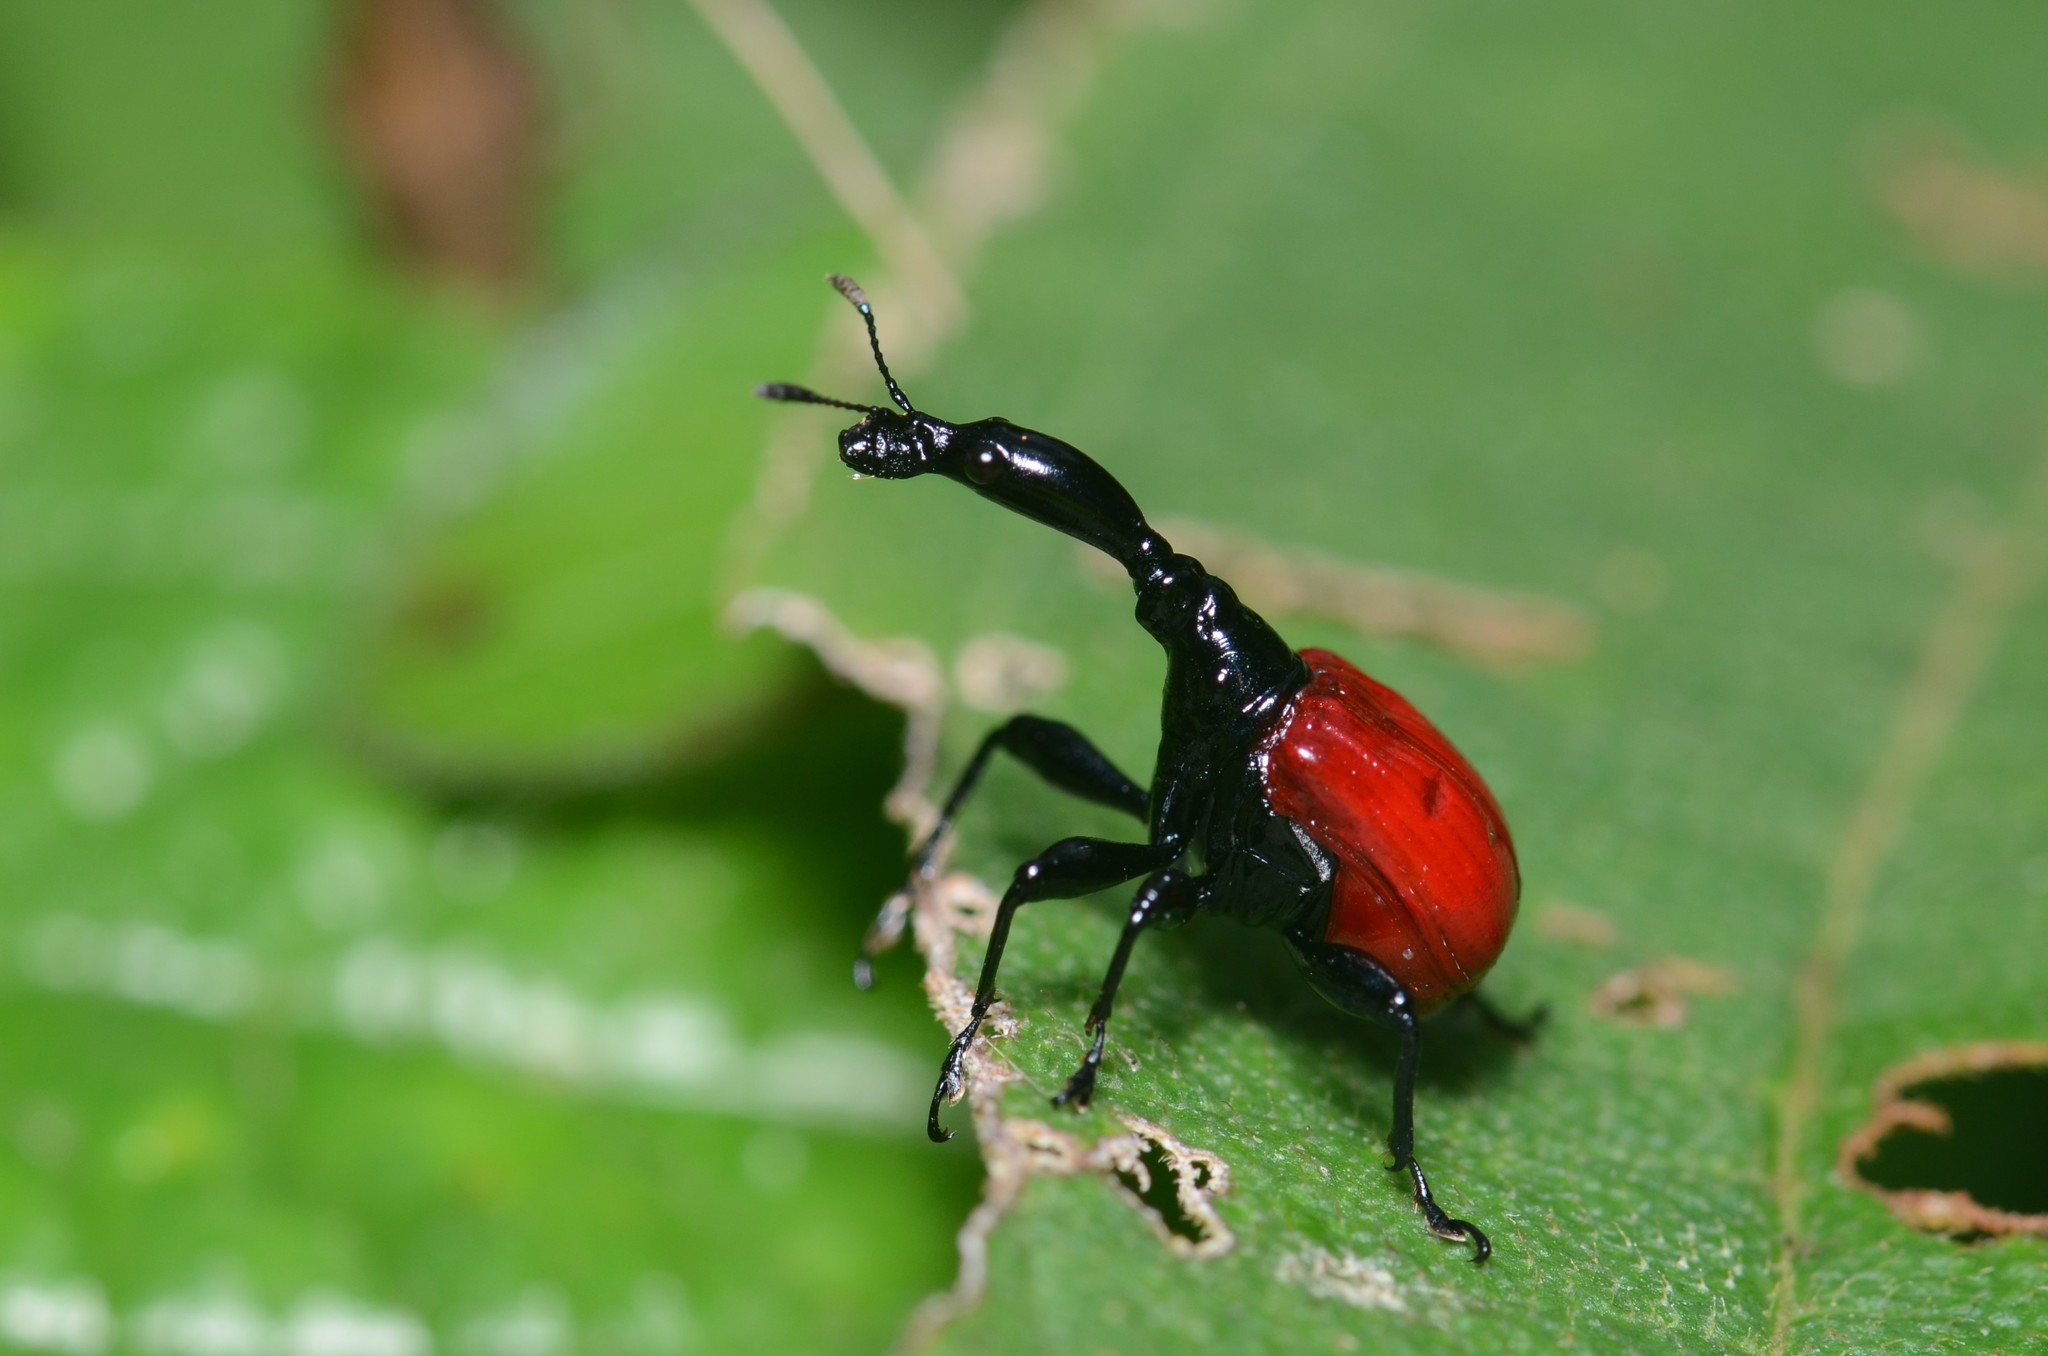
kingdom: Animalia
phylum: Arthropoda
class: Insecta
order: Coleoptera
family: Attelabidae
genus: Trachelophorus
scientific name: Trachelophorus giraffa
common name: Giraffe weevil
